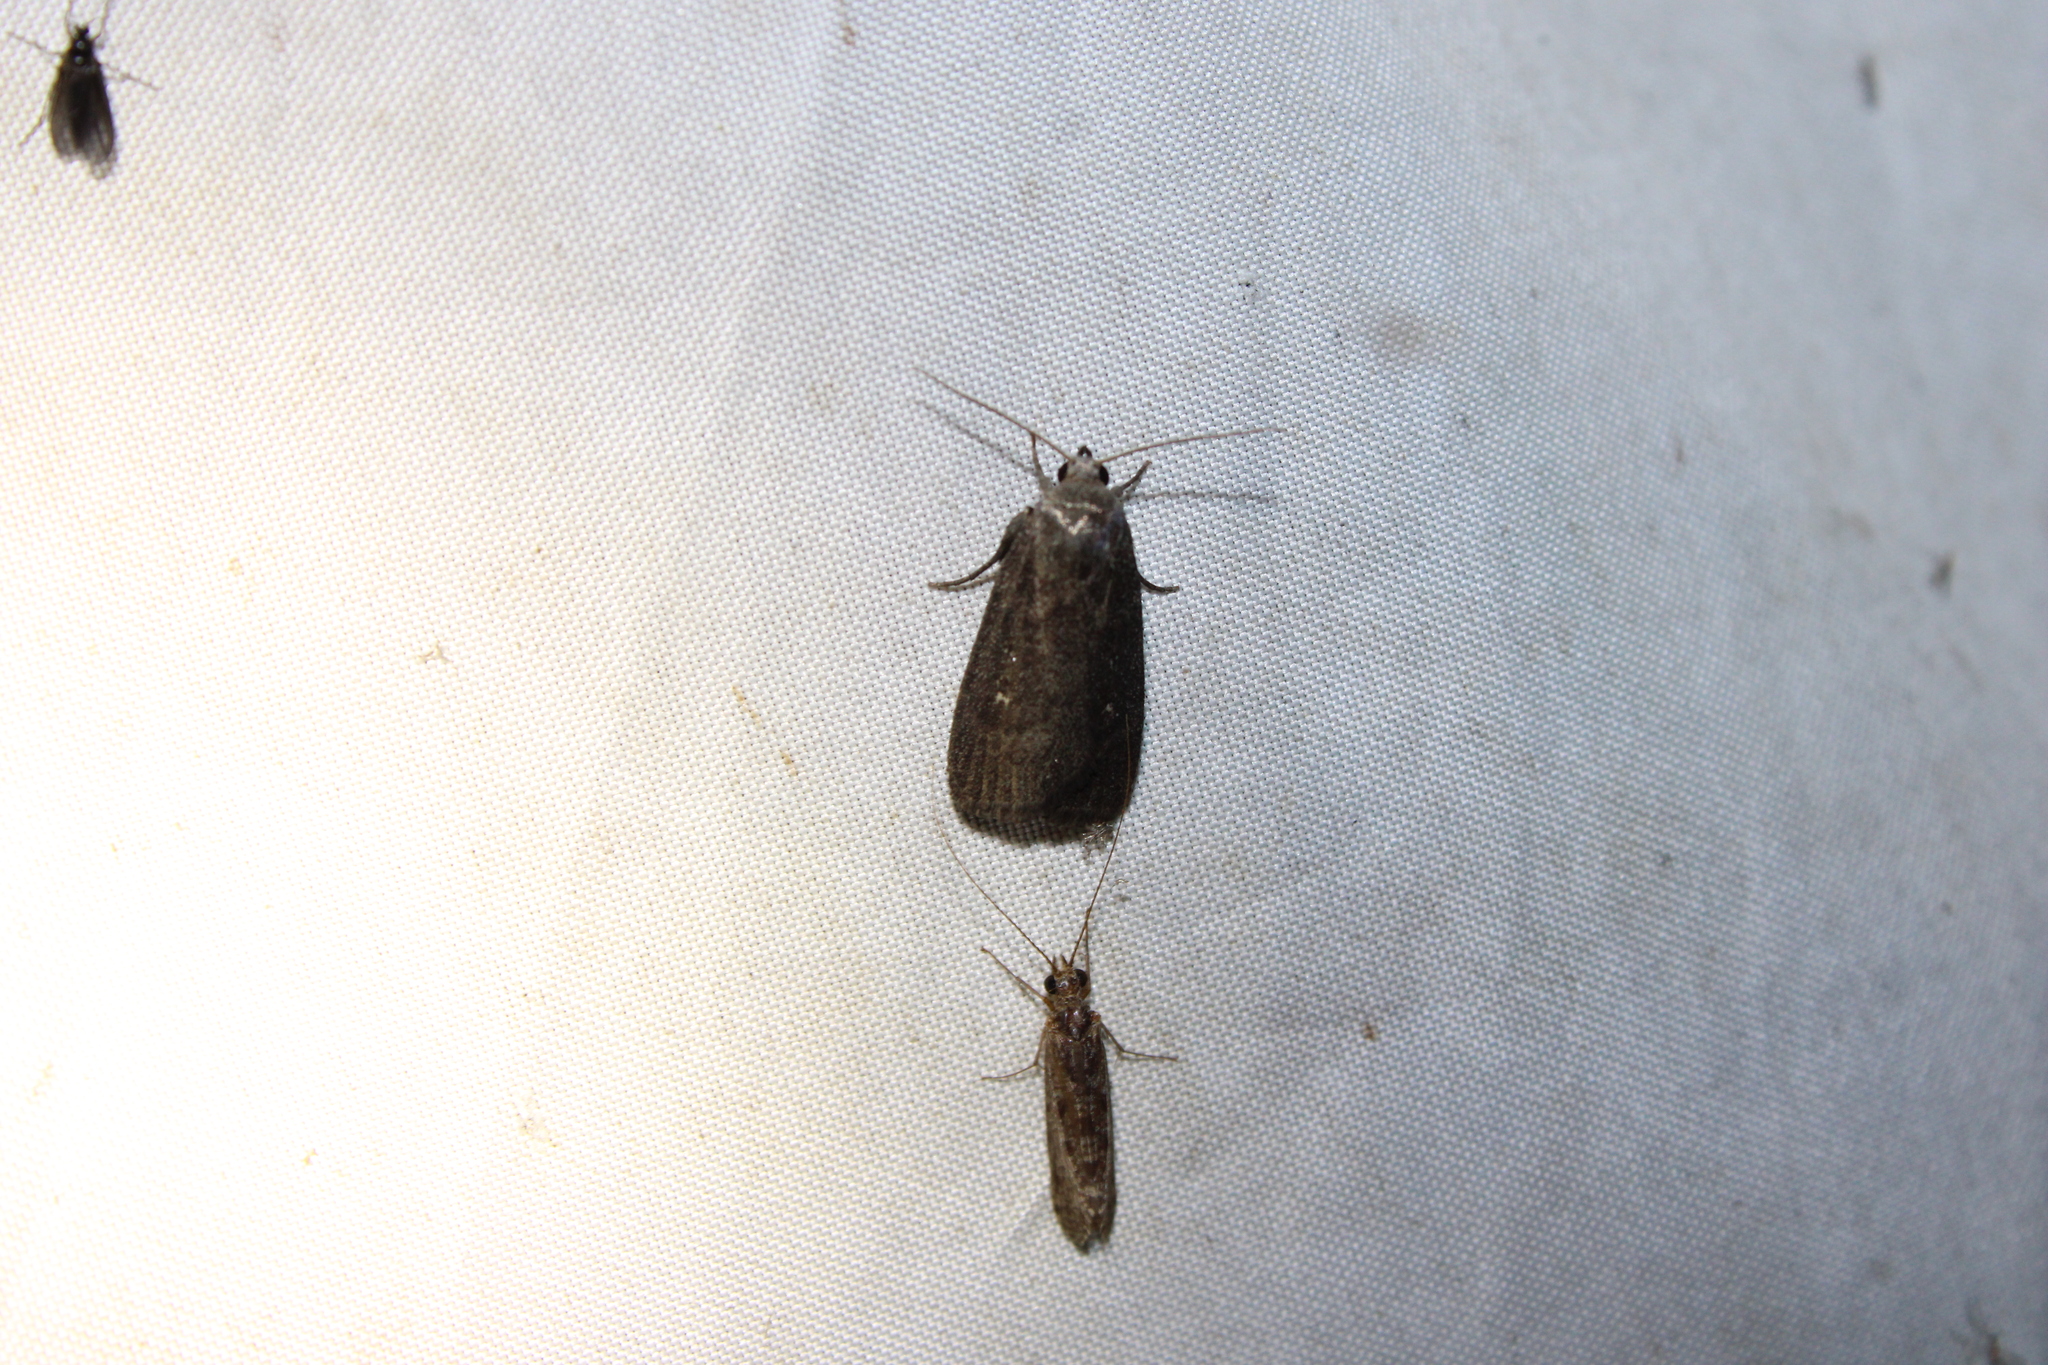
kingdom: Animalia
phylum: Arthropoda
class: Insecta
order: Lepidoptera
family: Noctuidae
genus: Proxenus
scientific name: Proxenus miranda
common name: Miranda moth
